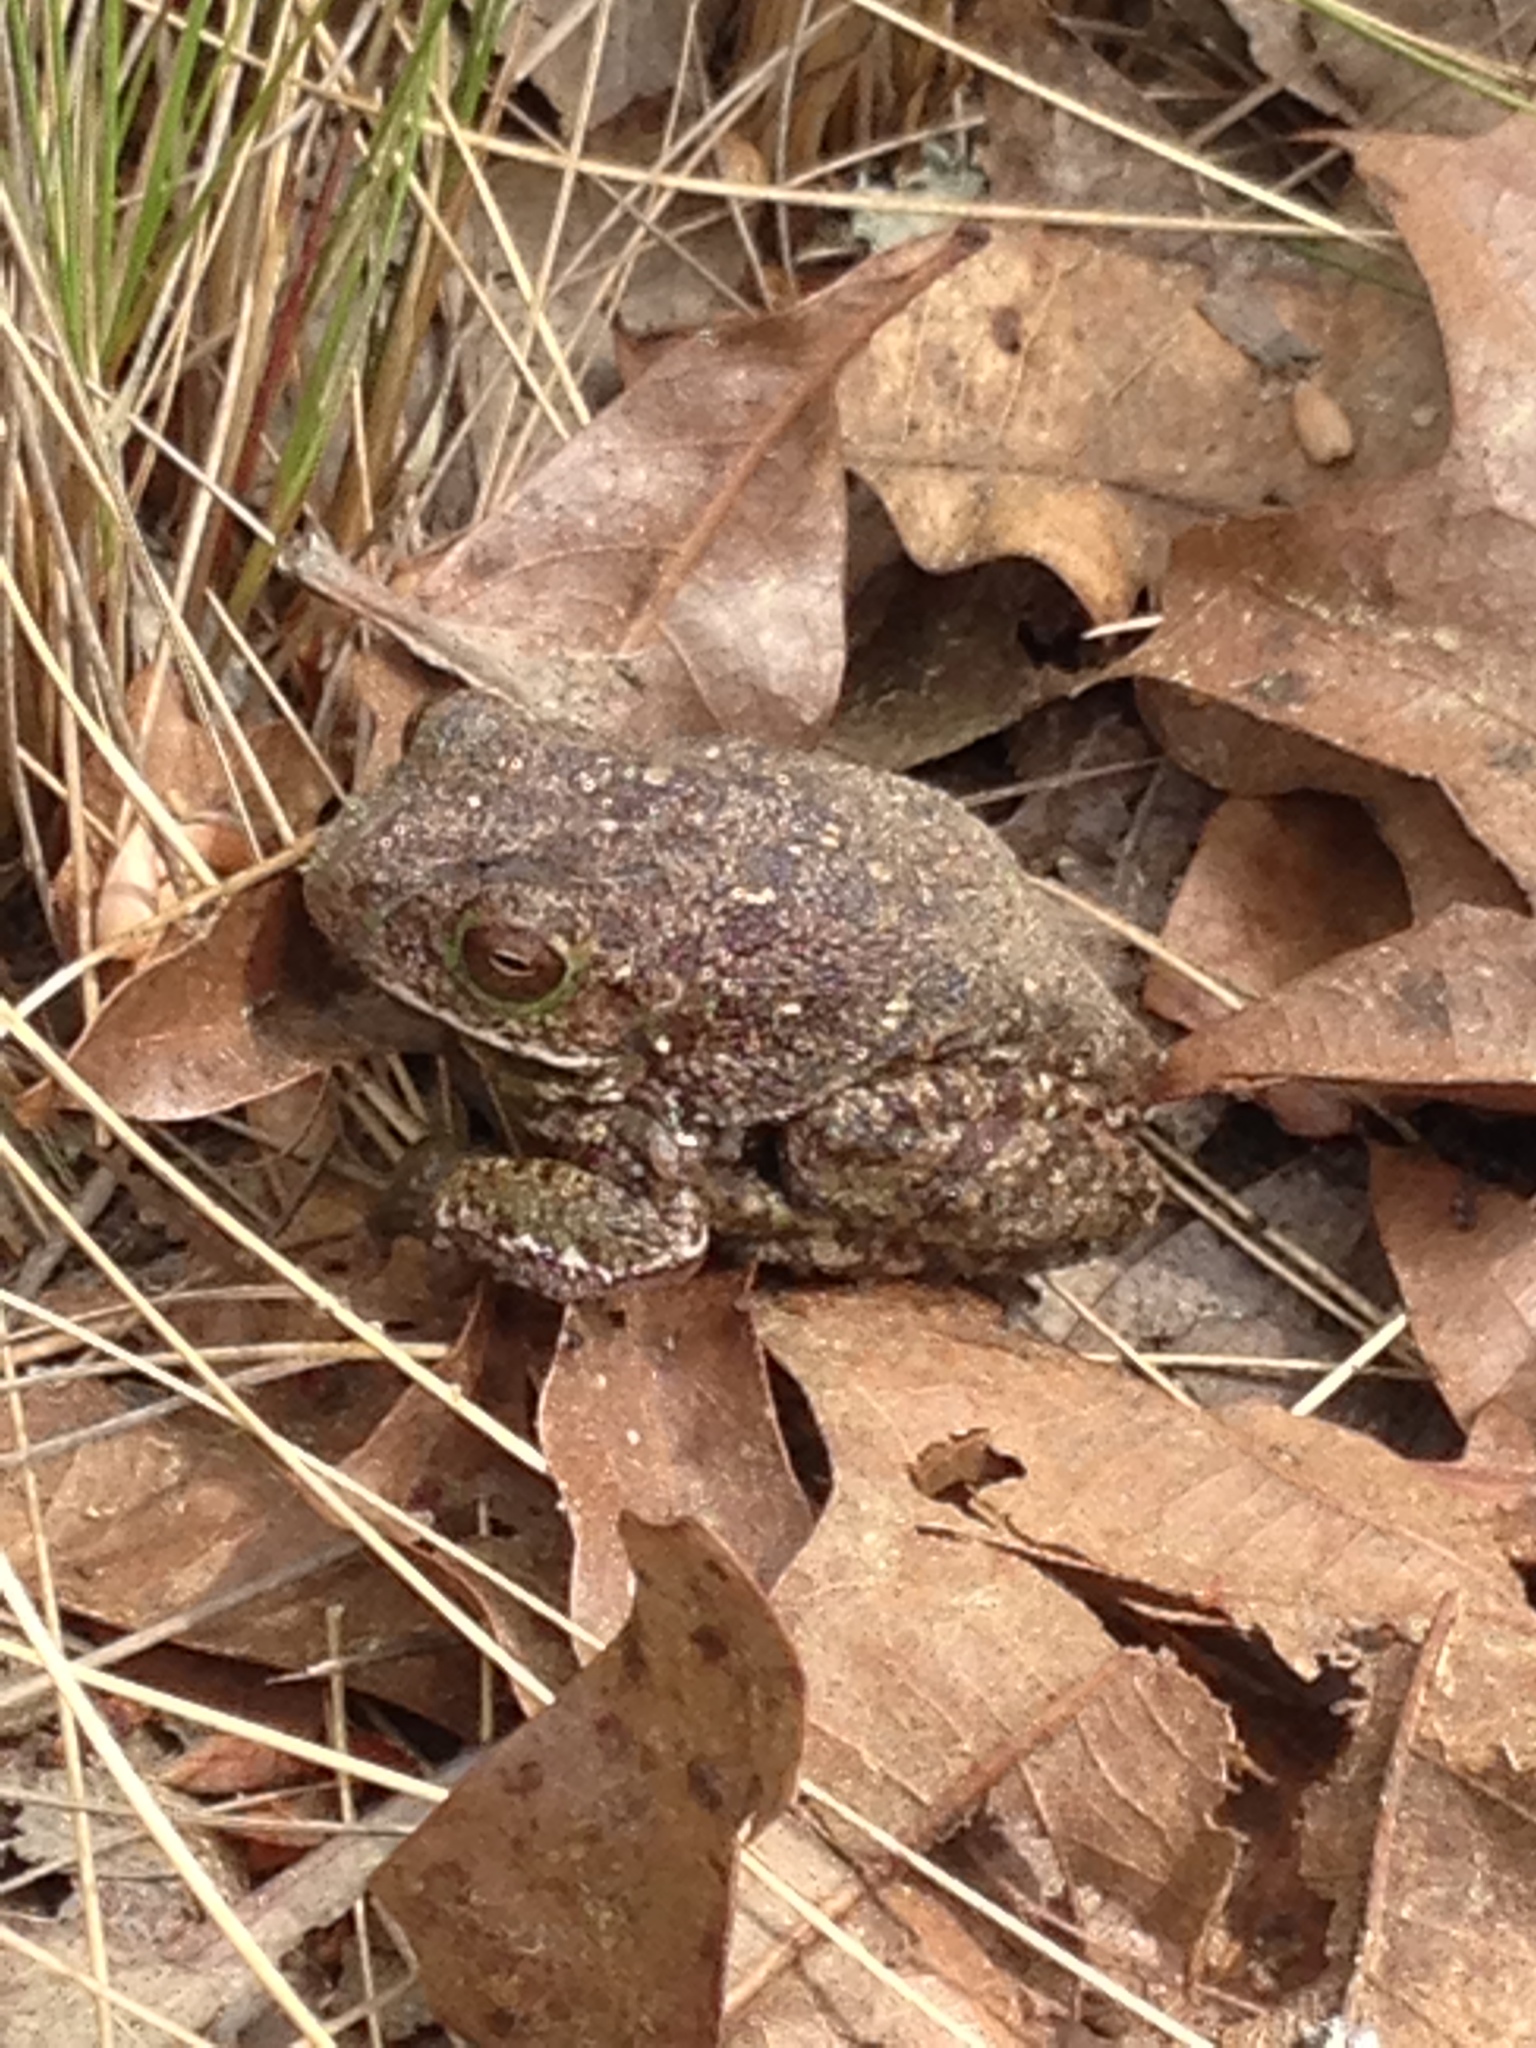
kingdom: Animalia
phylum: Chordata
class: Amphibia
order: Anura
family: Hylidae
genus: Dryophytes
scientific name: Dryophytes gratiosus
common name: Barking treefrog
